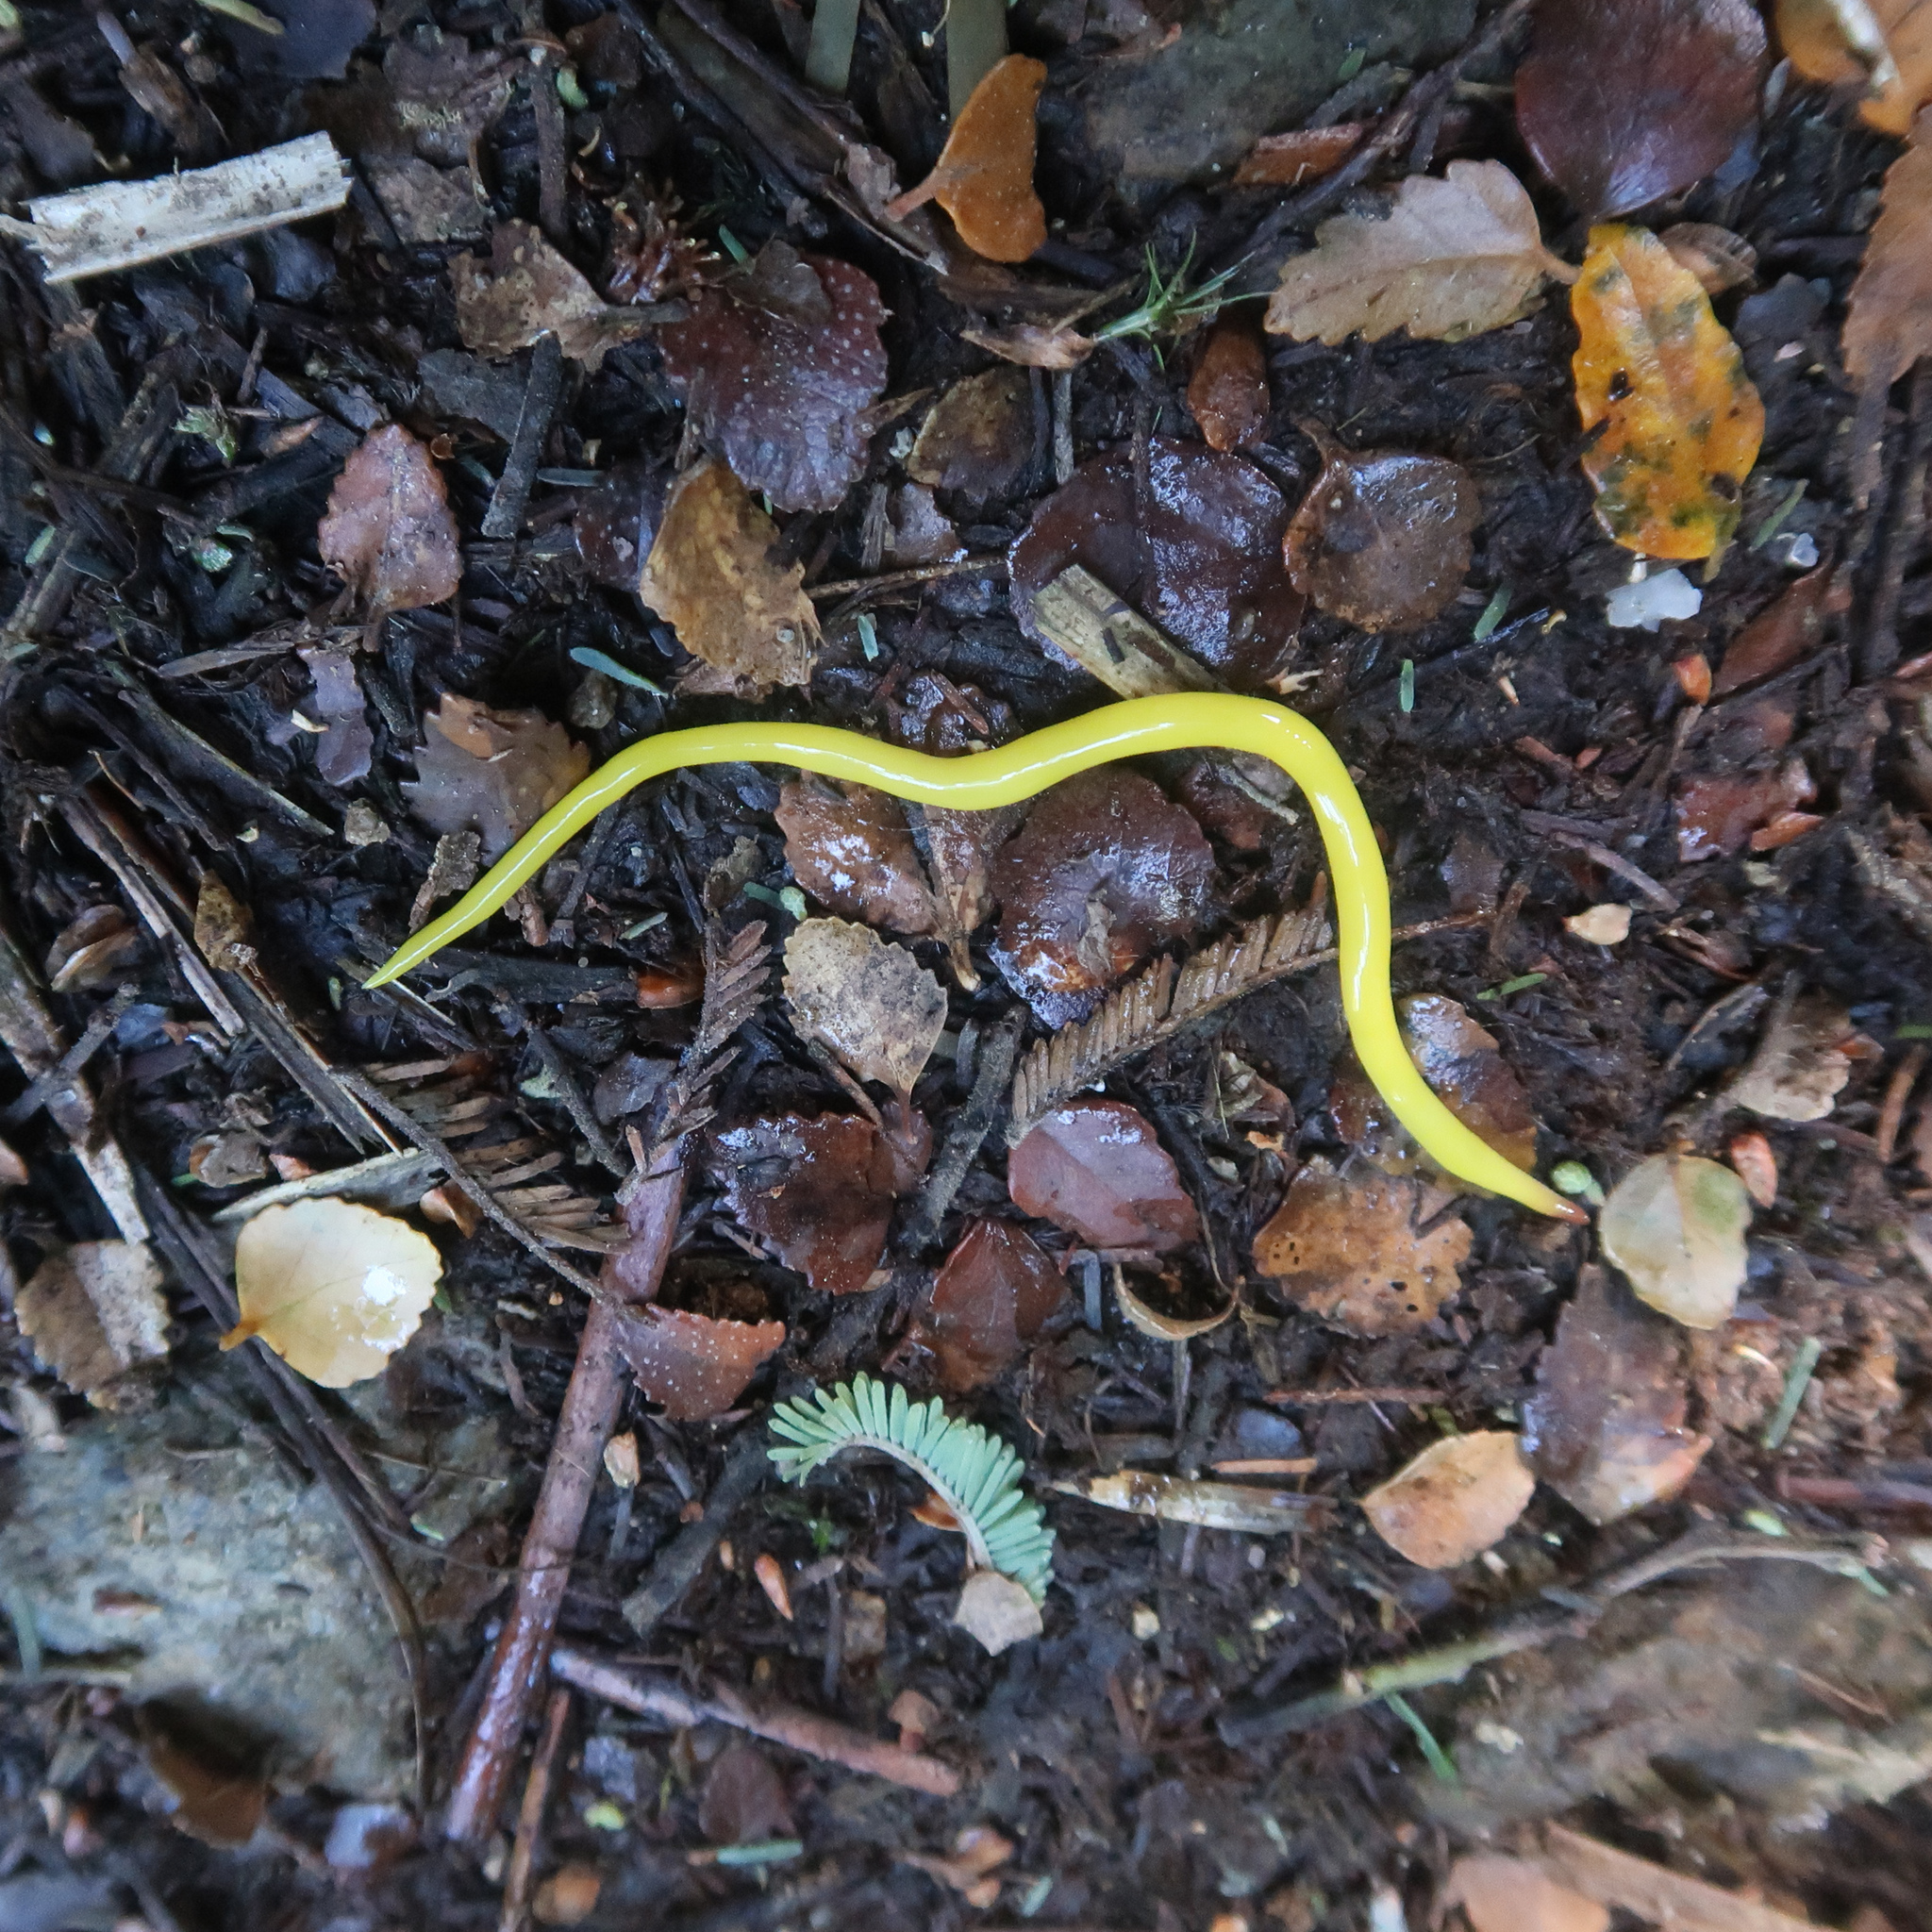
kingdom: Animalia
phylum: Platyhelminthes
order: Tricladida
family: Geoplanidae
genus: Fletchamia
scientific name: Fletchamia sugdeni
